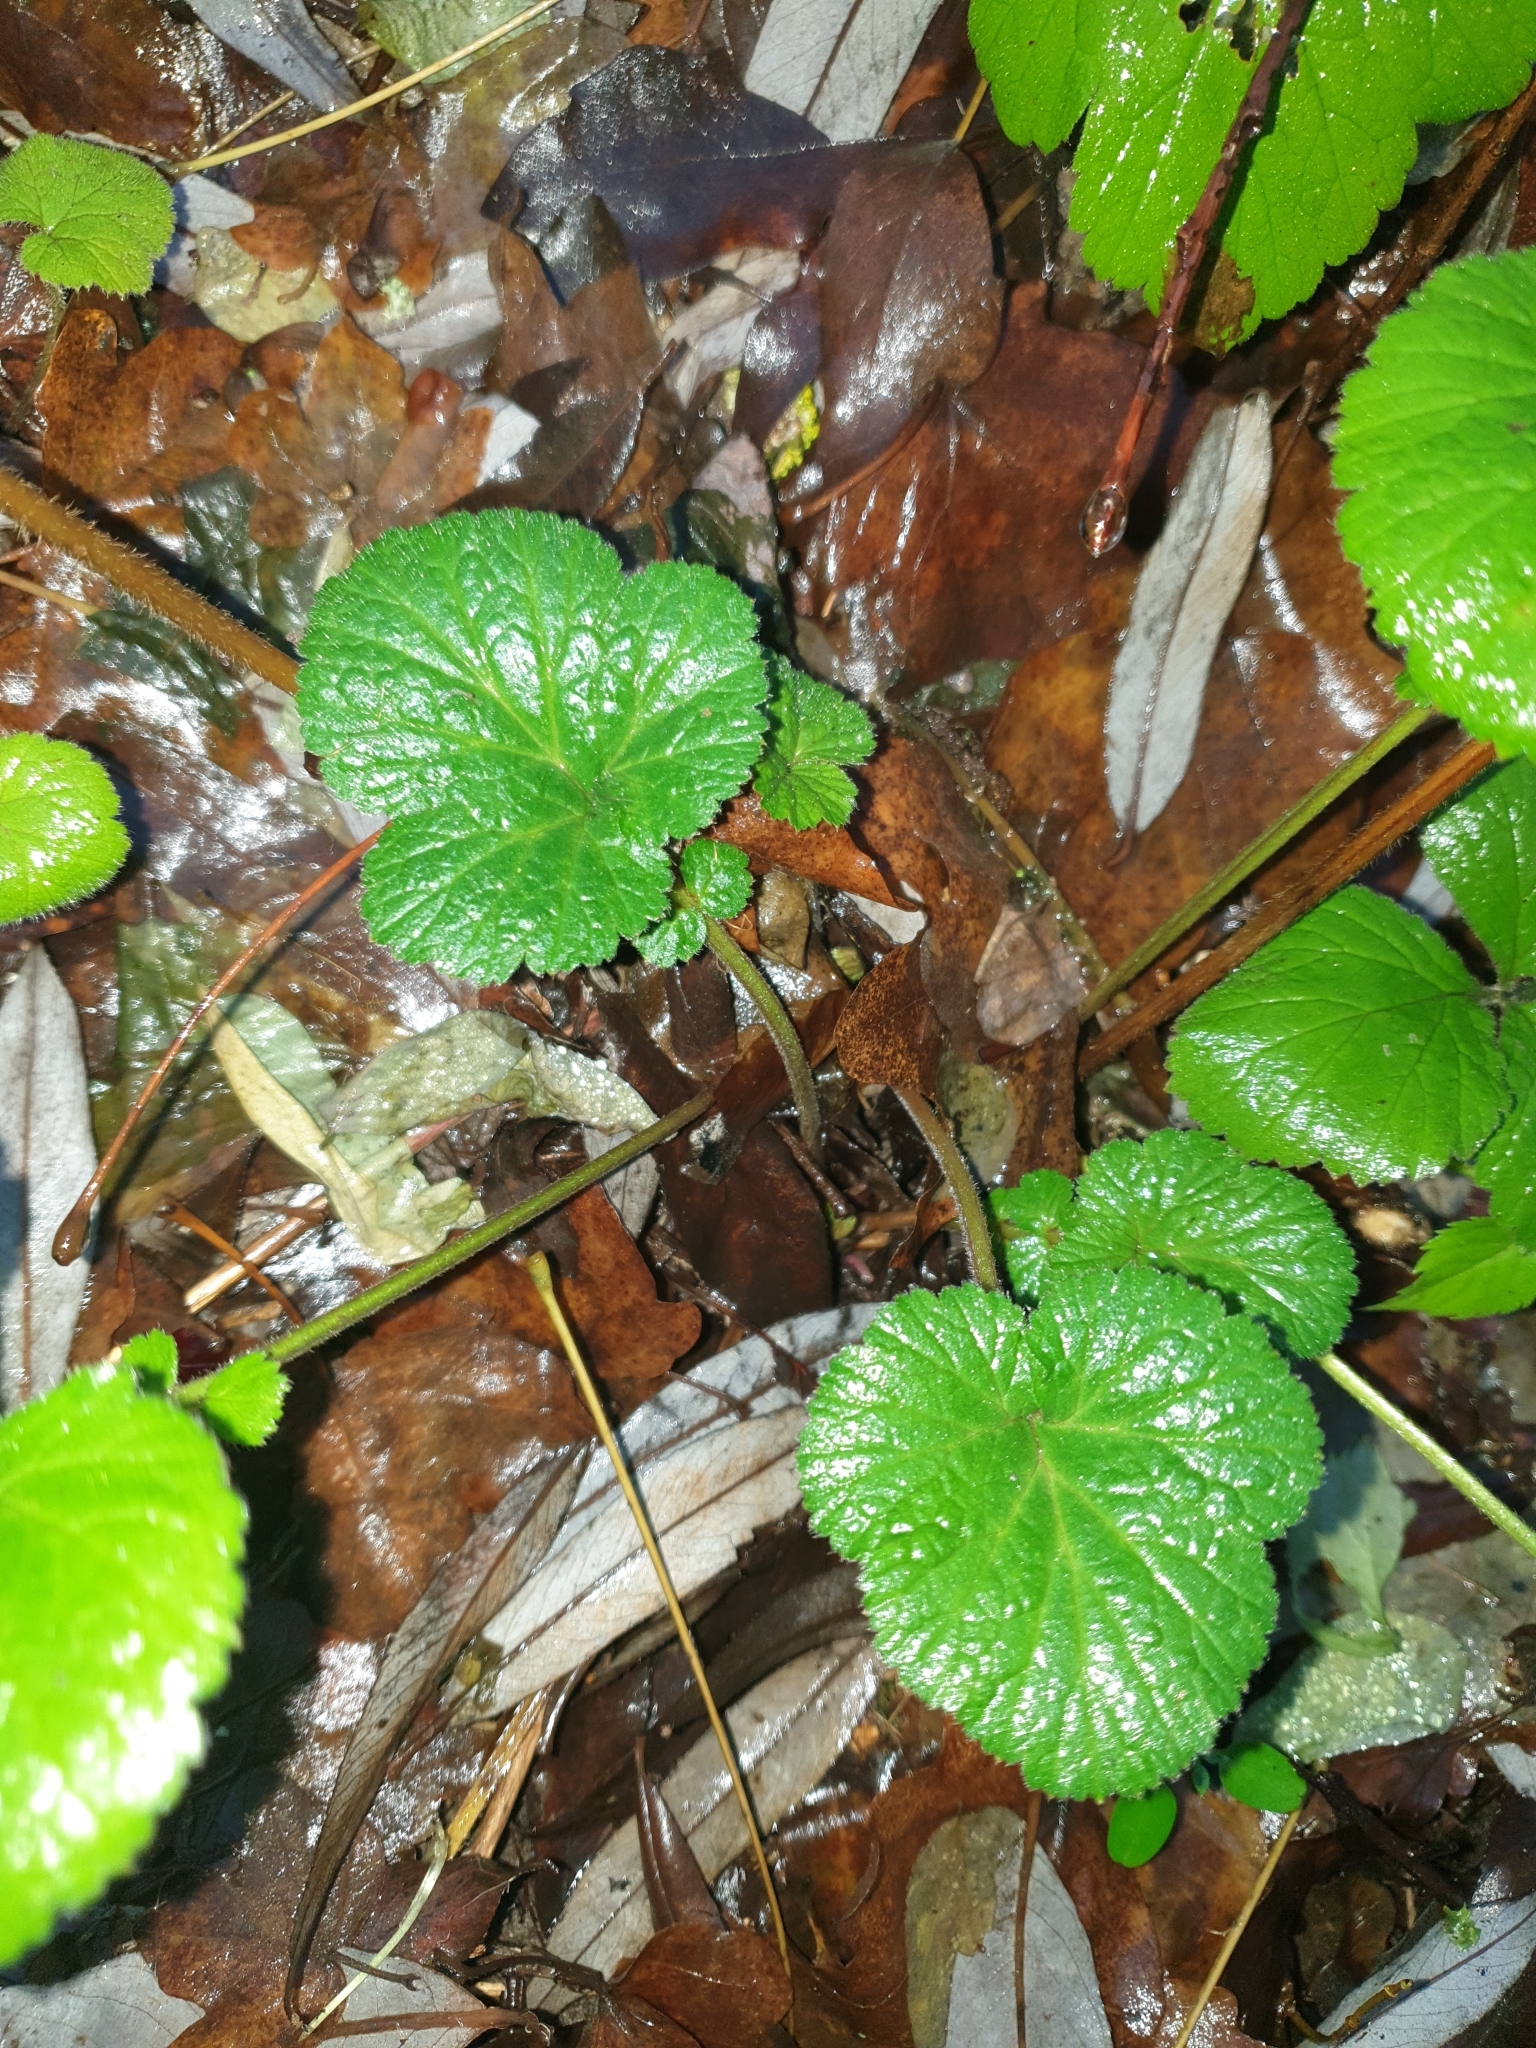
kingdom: Plantae
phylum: Tracheophyta
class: Magnoliopsida
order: Rosales
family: Rosaceae
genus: Geum
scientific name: Geum urbanum
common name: Wood avens
